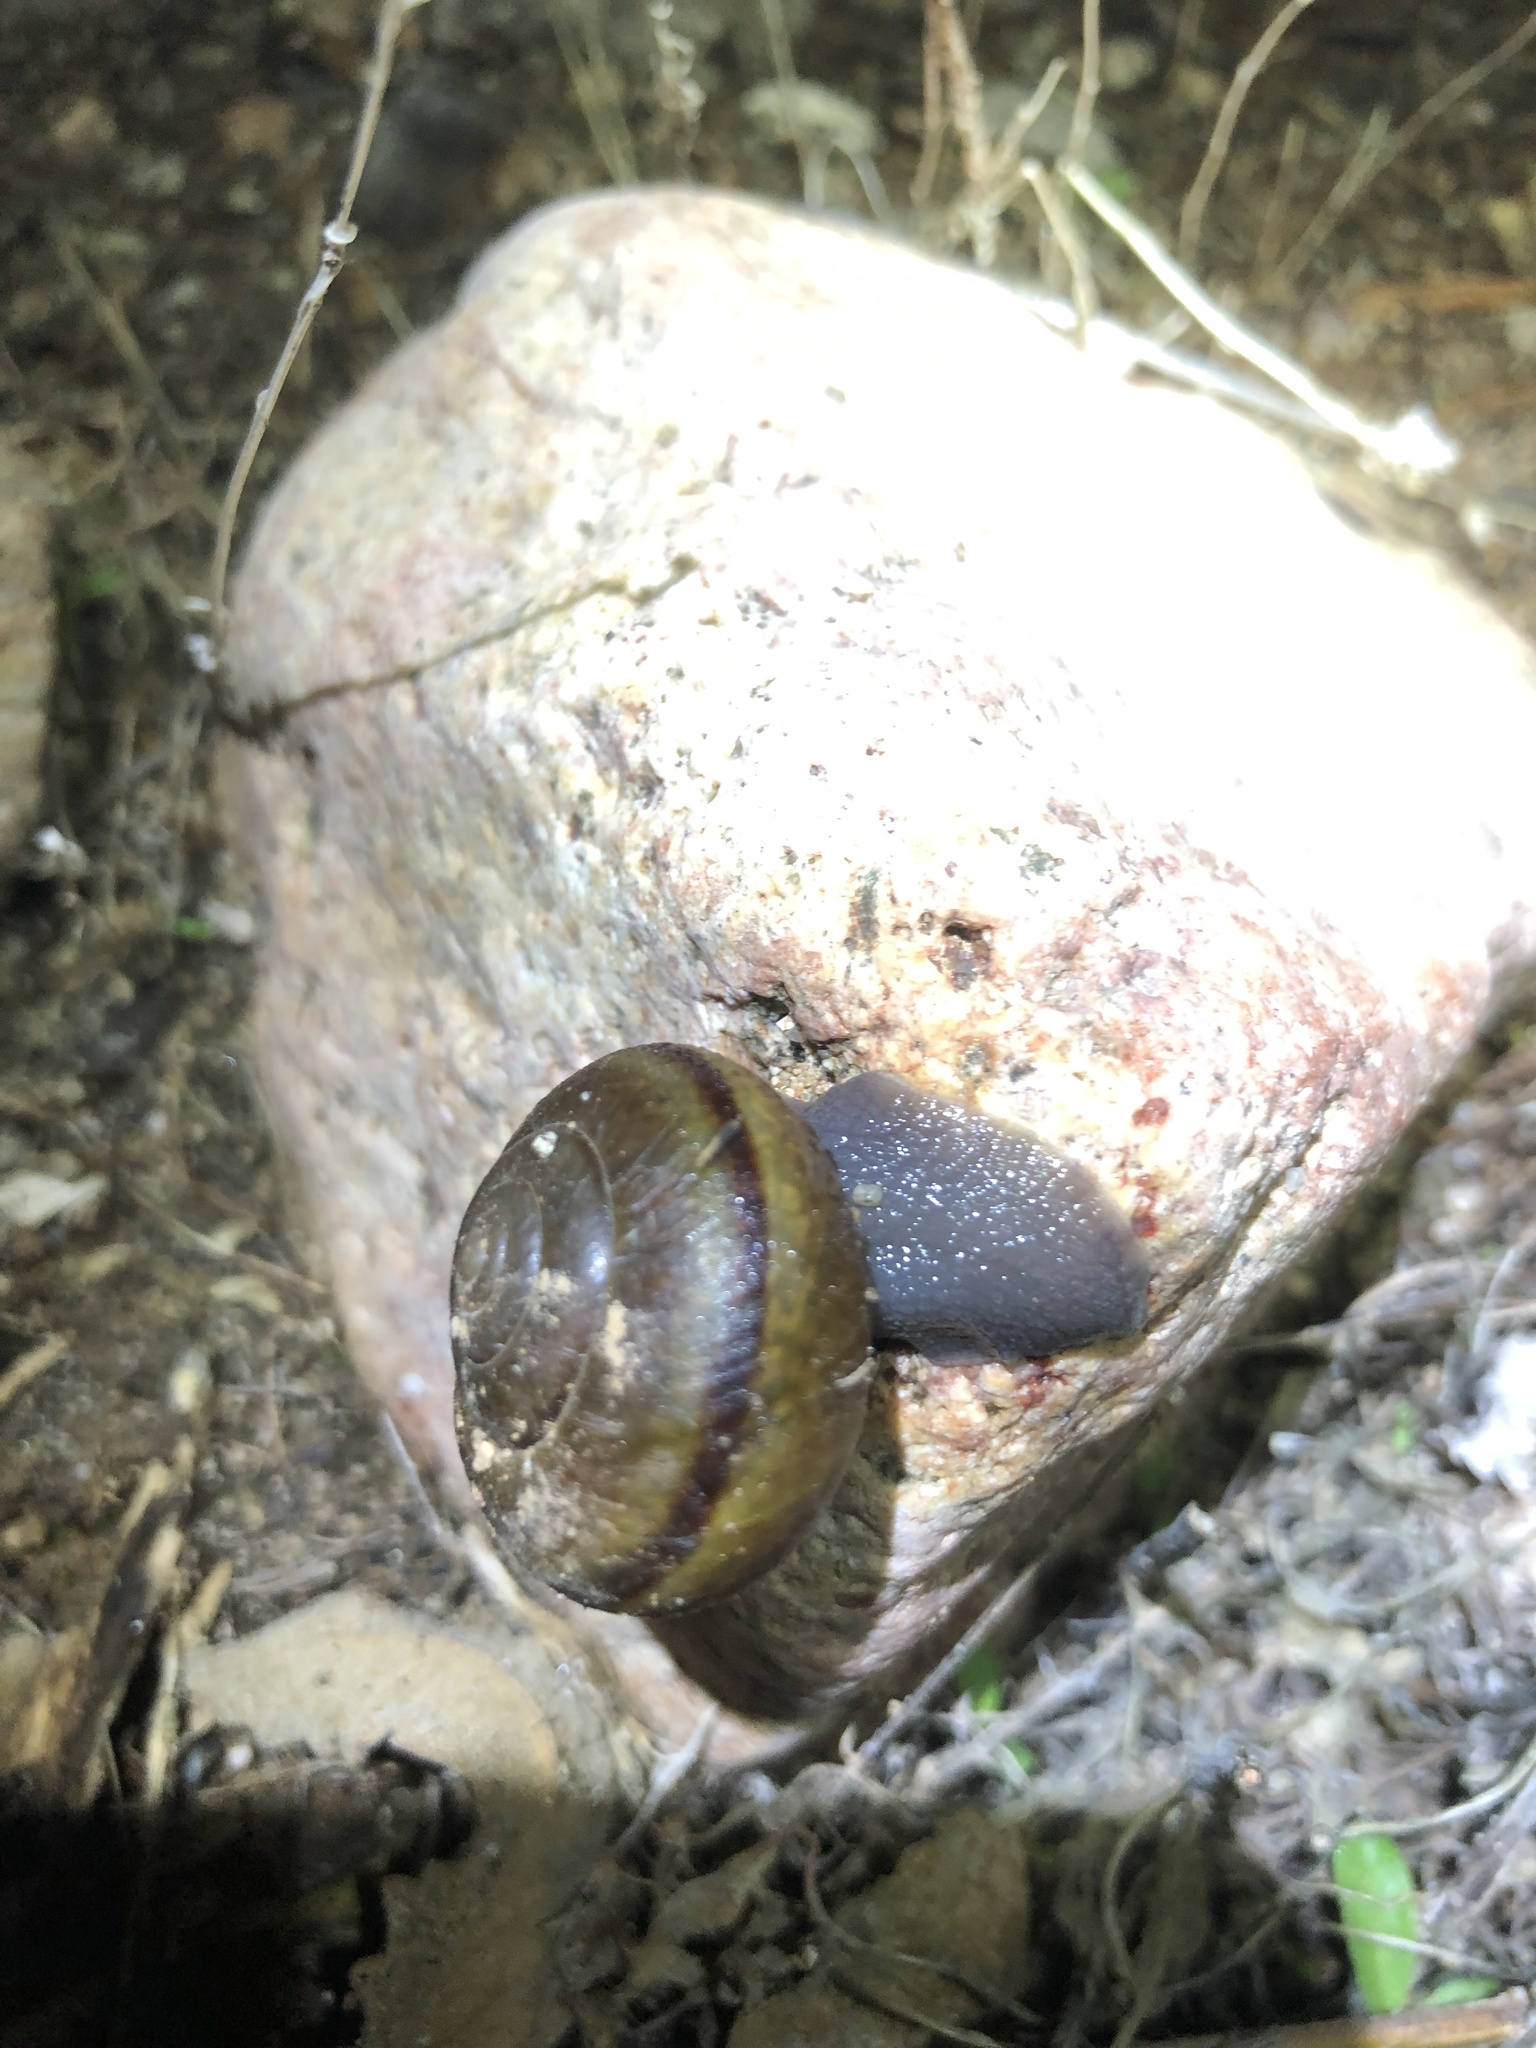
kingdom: Animalia
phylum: Mollusca
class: Gastropoda
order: Stylommatophora
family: Xanthonychidae
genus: Helminthoglypta
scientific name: Helminthoglypta tudiculata
